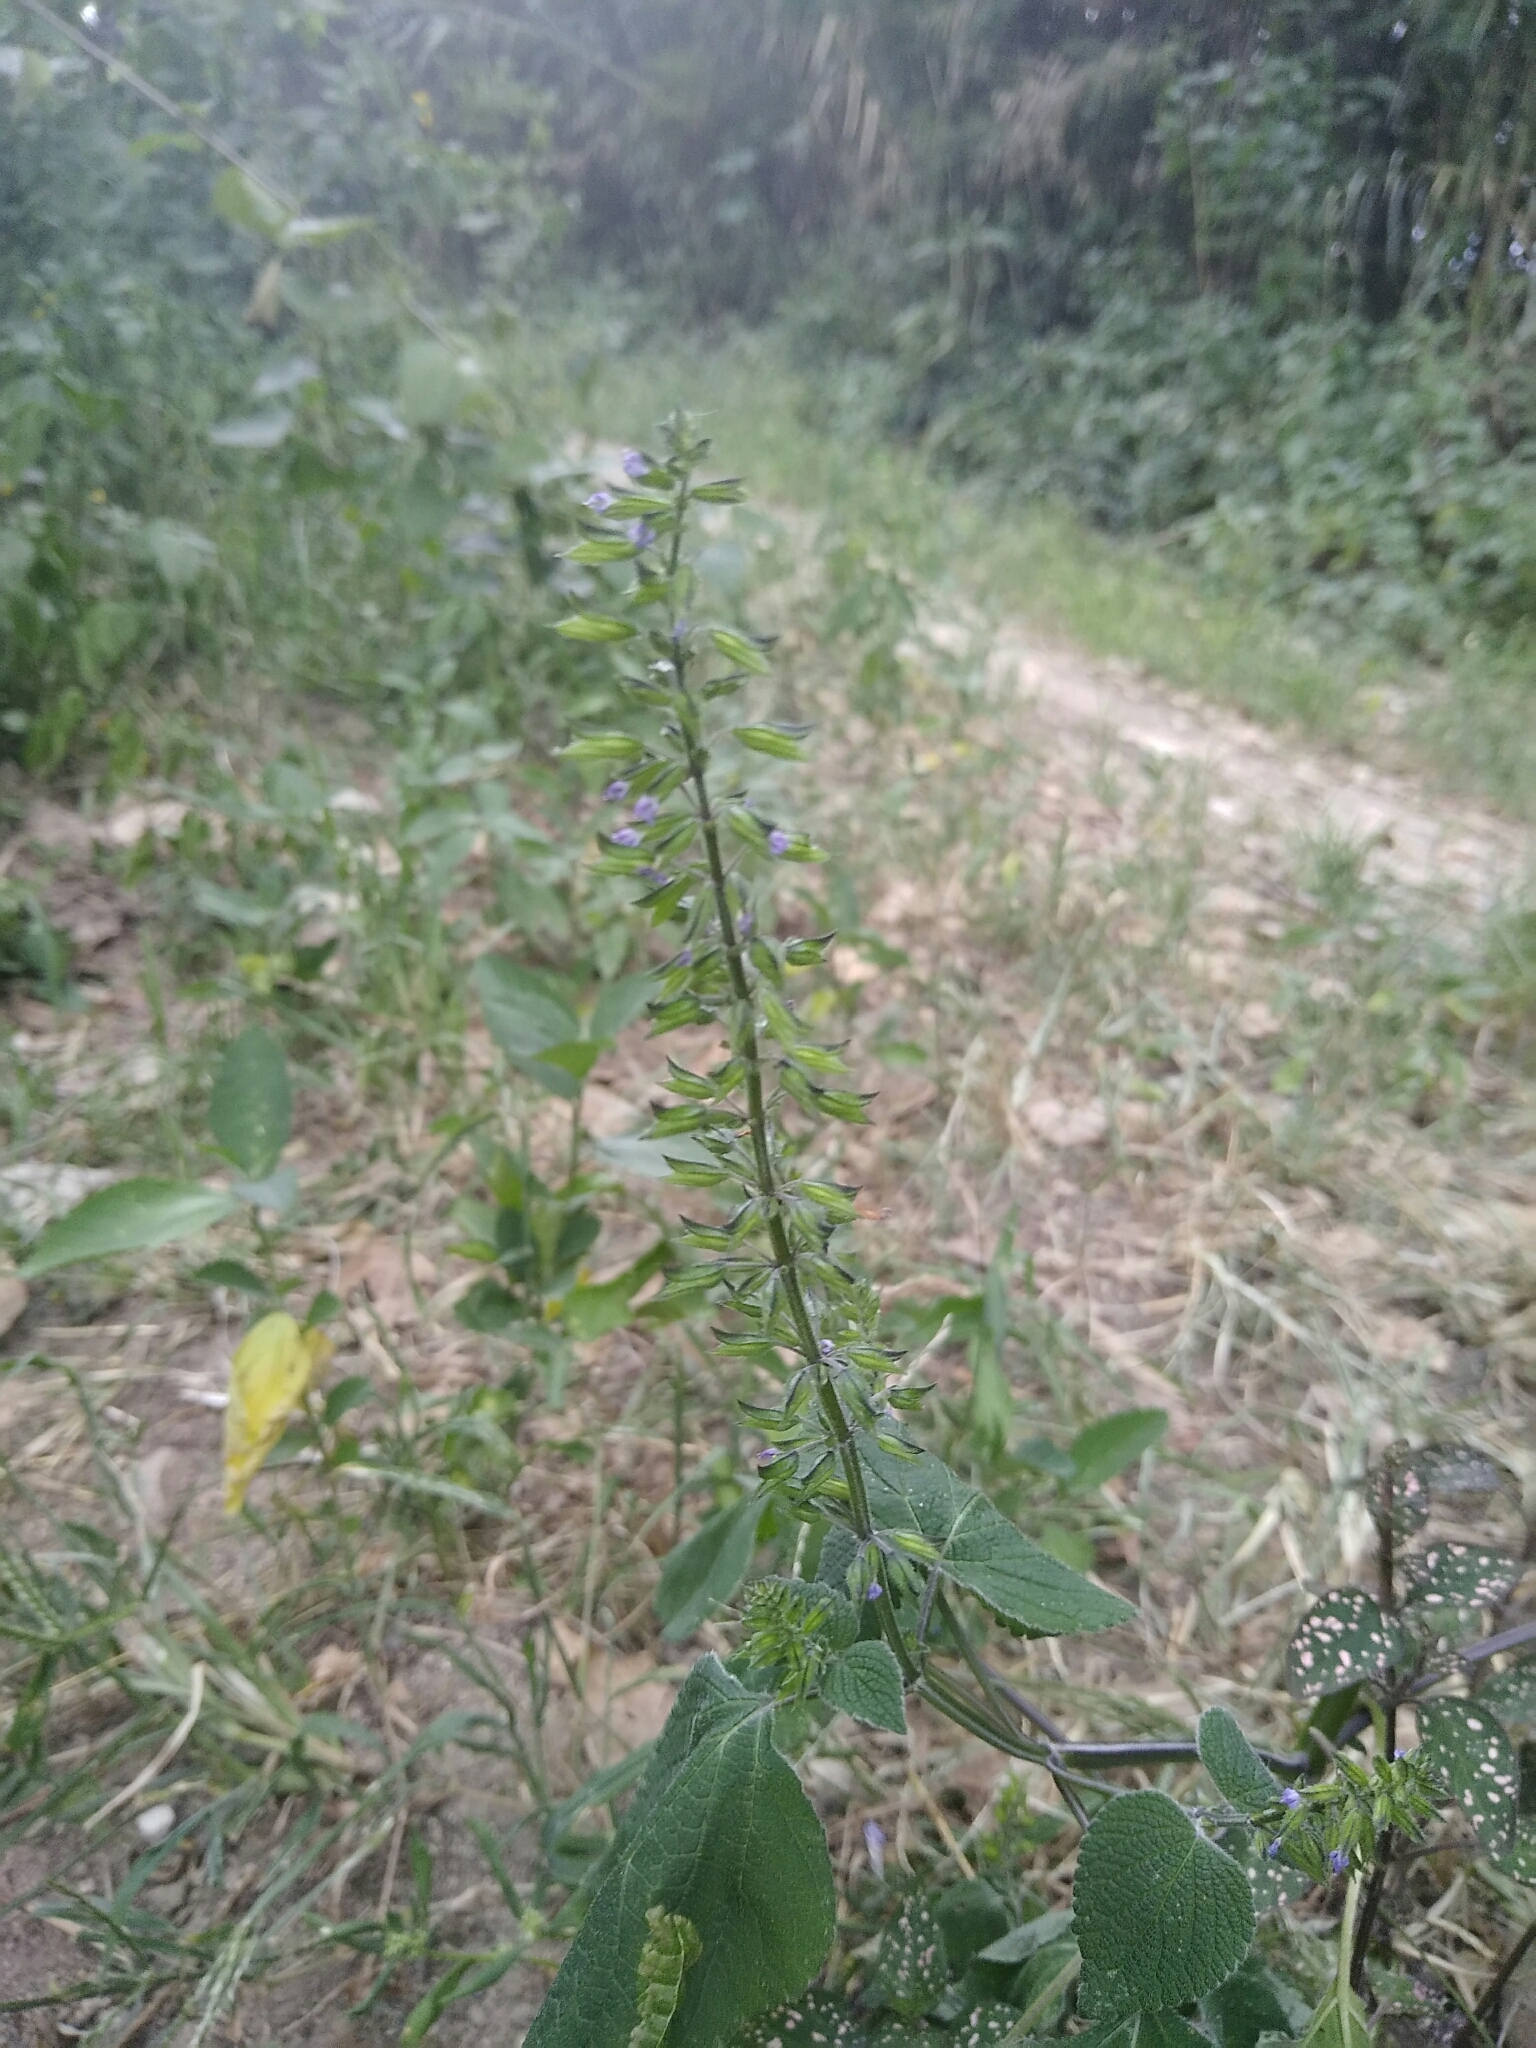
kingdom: Plantae
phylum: Tracheophyta
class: Magnoliopsida
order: Lamiales
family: Lamiaceae
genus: Salvia
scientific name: Salvia tiliifolia
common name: Lindenleaf sage
